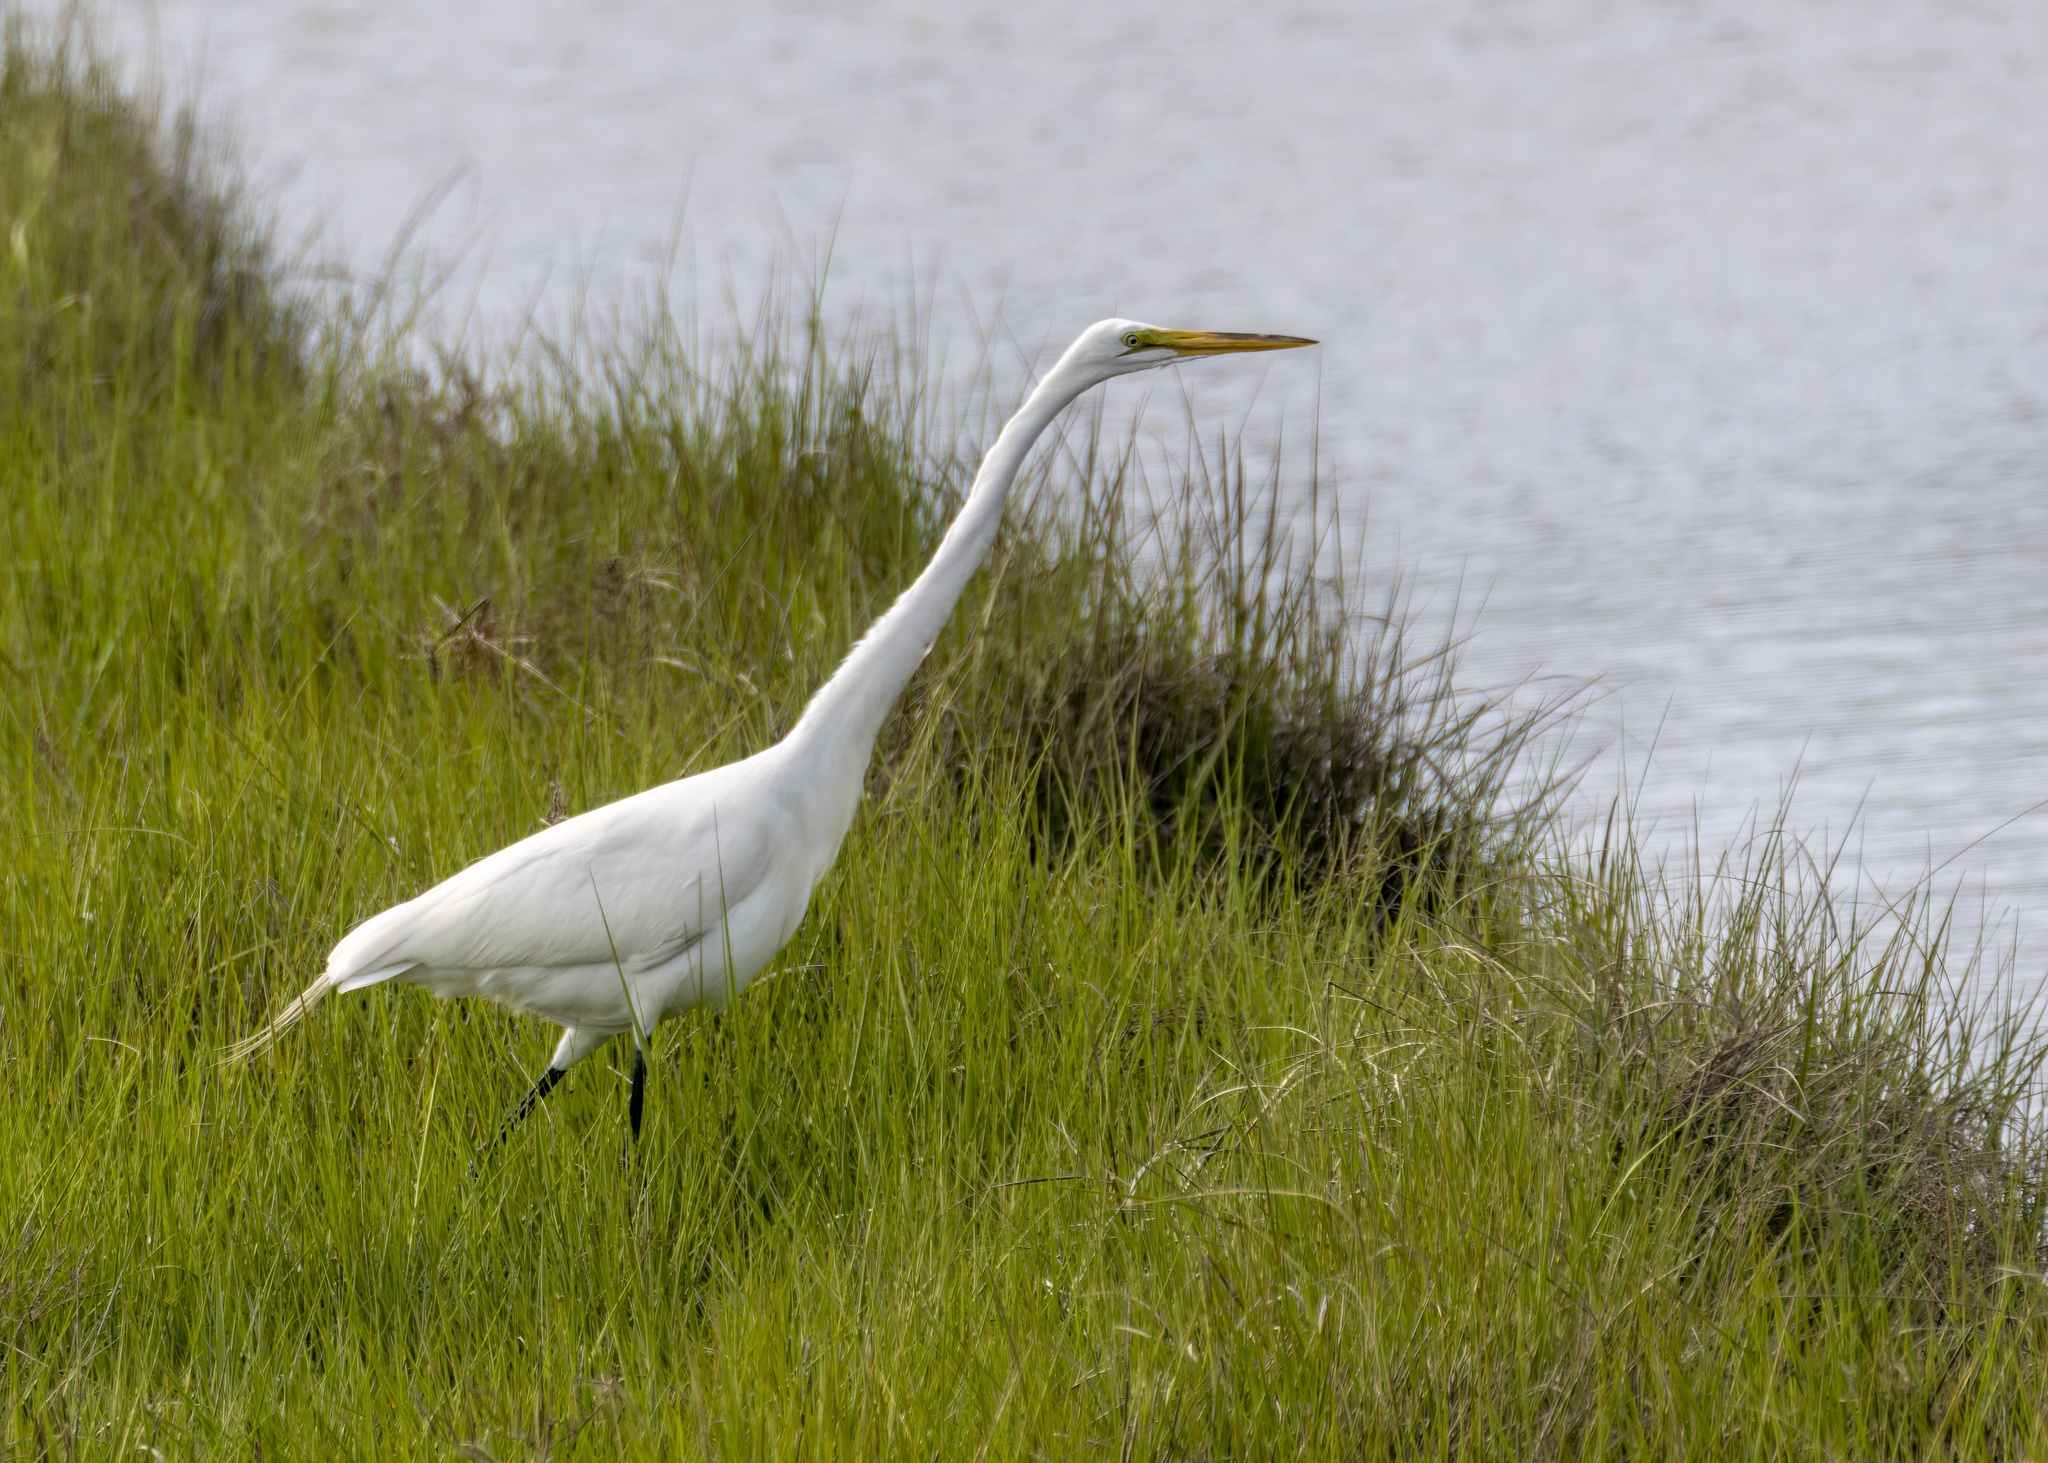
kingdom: Animalia
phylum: Chordata
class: Aves
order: Pelecaniformes
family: Ardeidae
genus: Ardea
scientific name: Ardea alba
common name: Great egret
